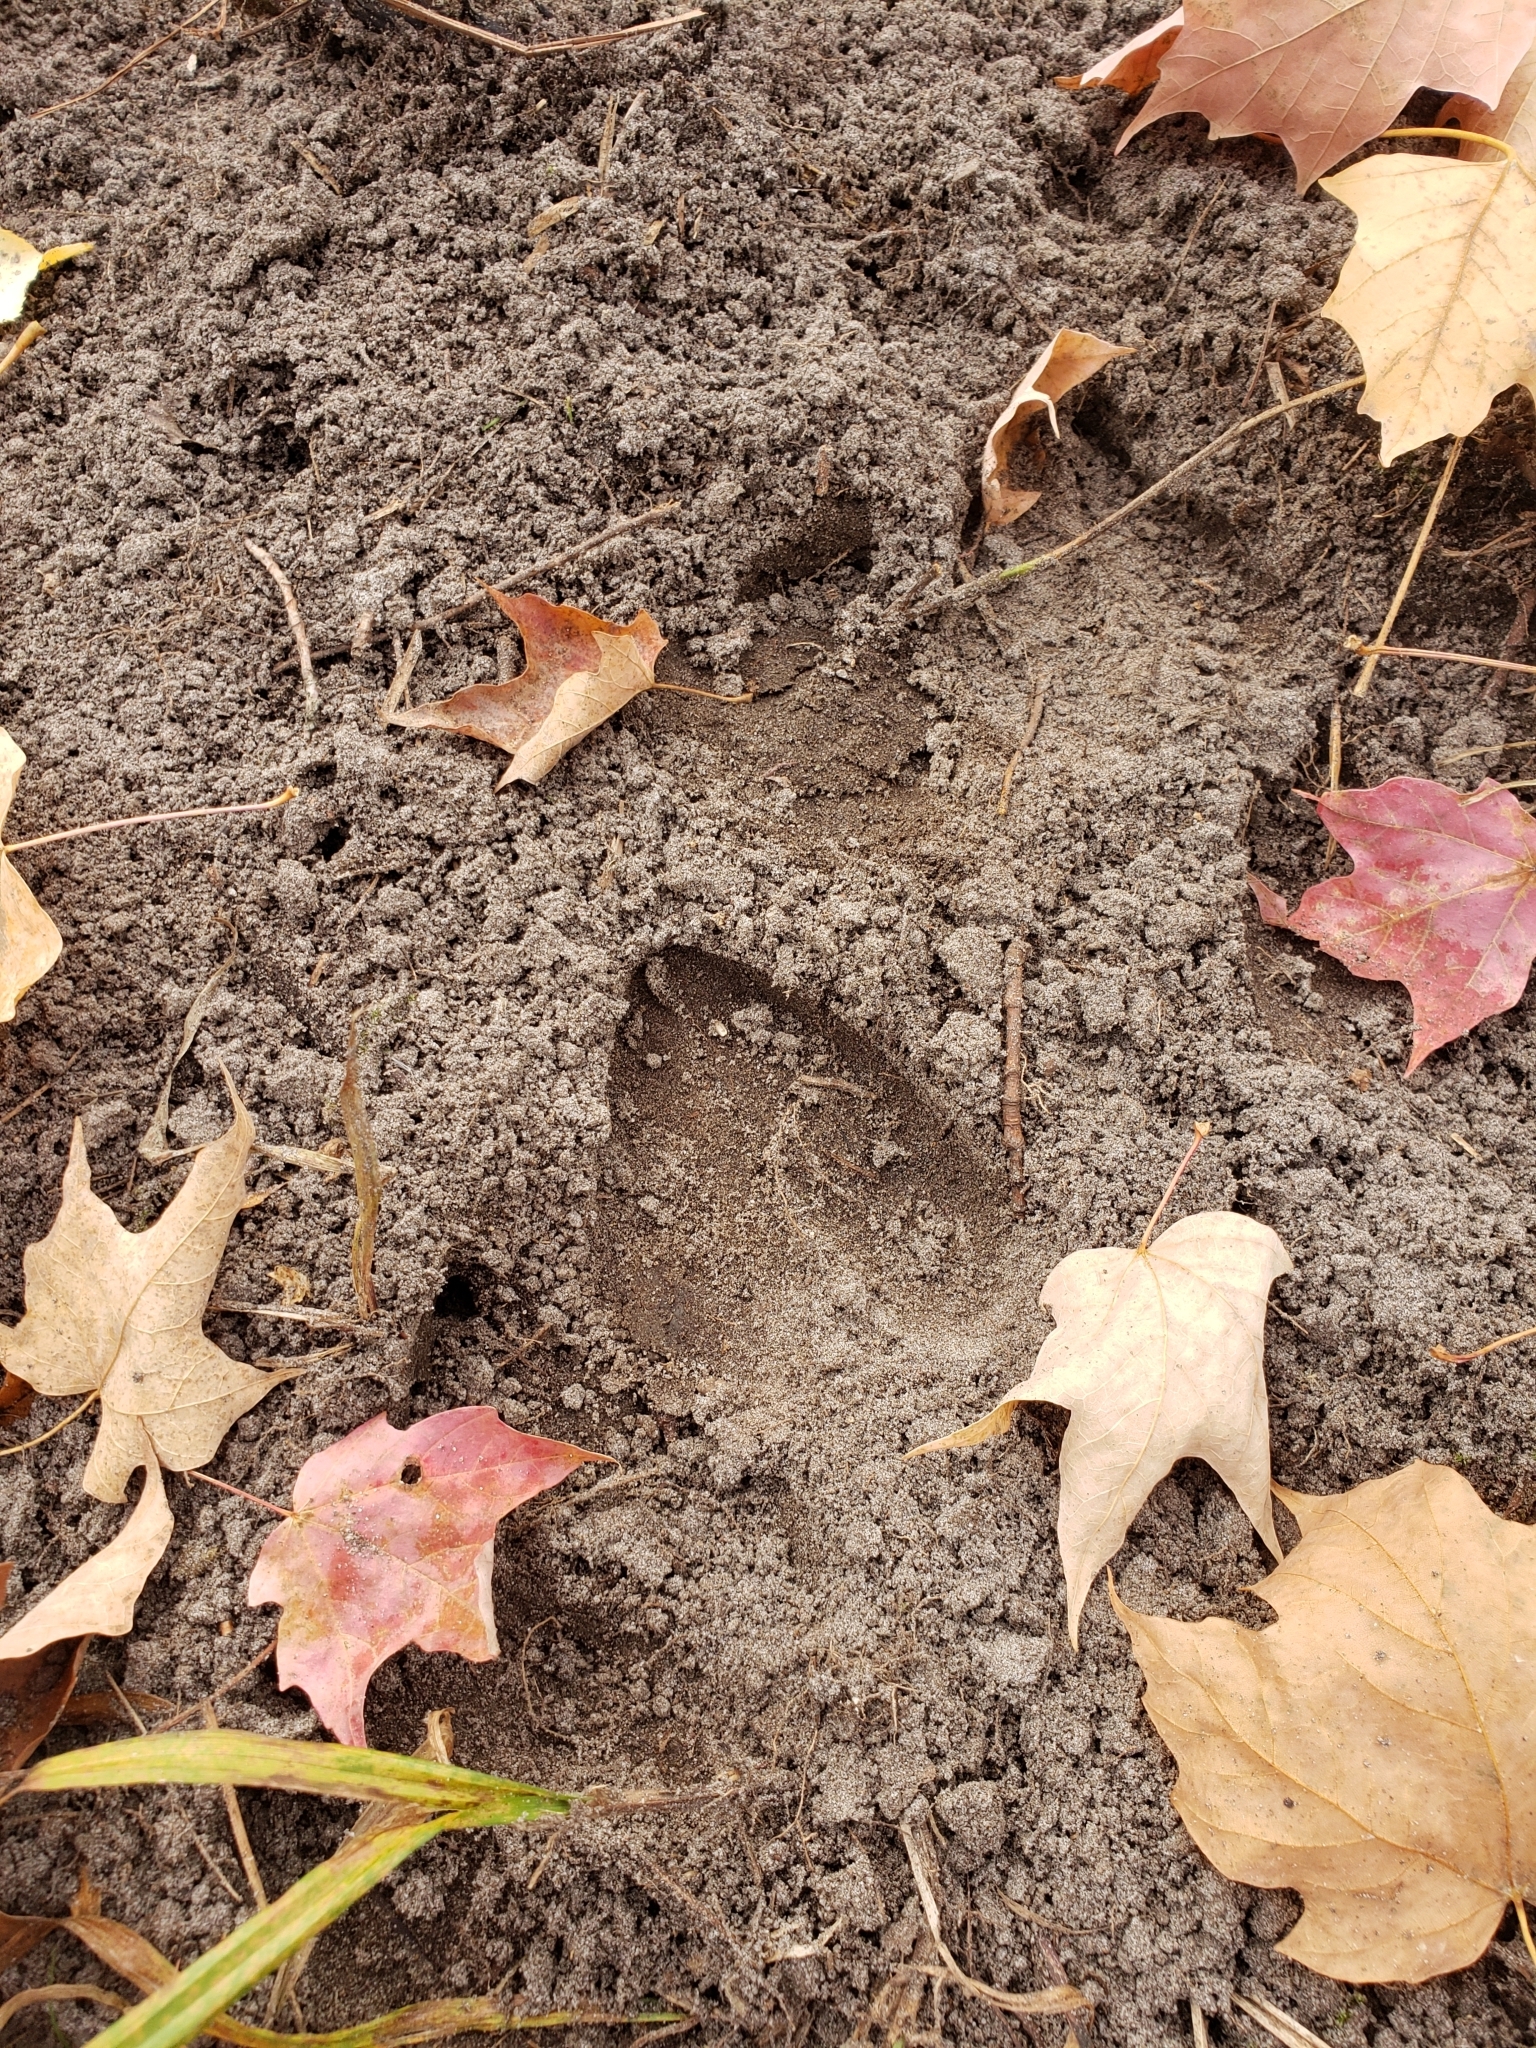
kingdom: Animalia
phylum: Chordata
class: Mammalia
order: Artiodactyla
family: Cervidae
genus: Odocoileus
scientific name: Odocoileus virginianus
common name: White-tailed deer
